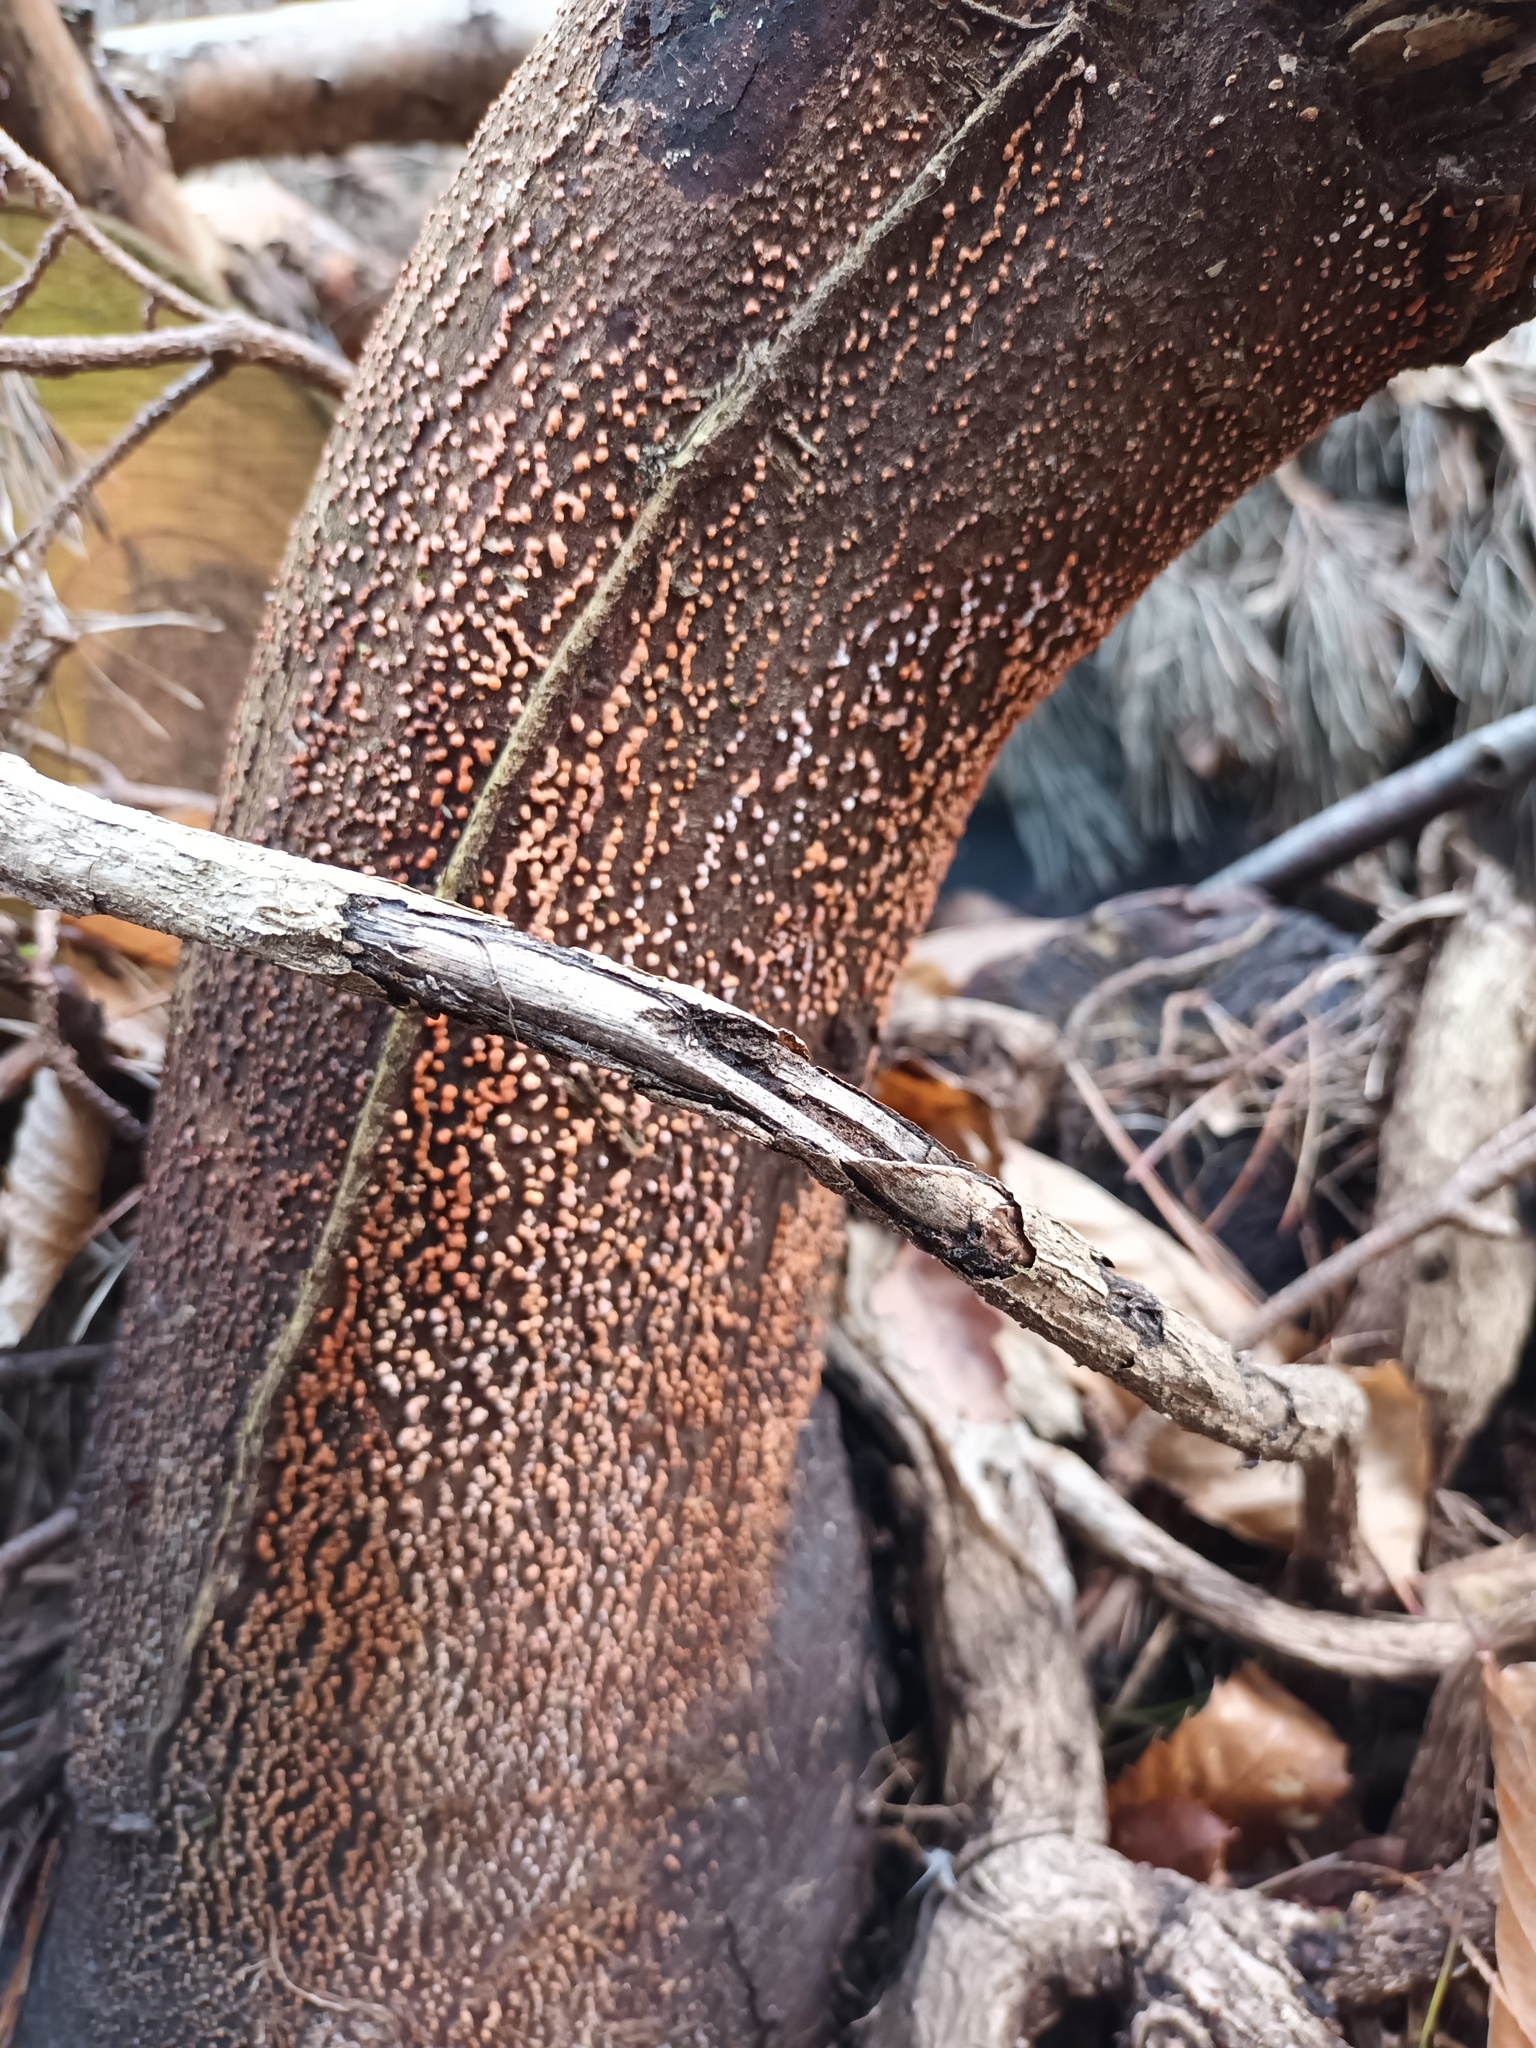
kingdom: Fungi
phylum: Ascomycota
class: Sordariomycetes
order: Hypocreales
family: Nectriaceae
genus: Nectria
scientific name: Nectria cinnabarina
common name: Coral spot
